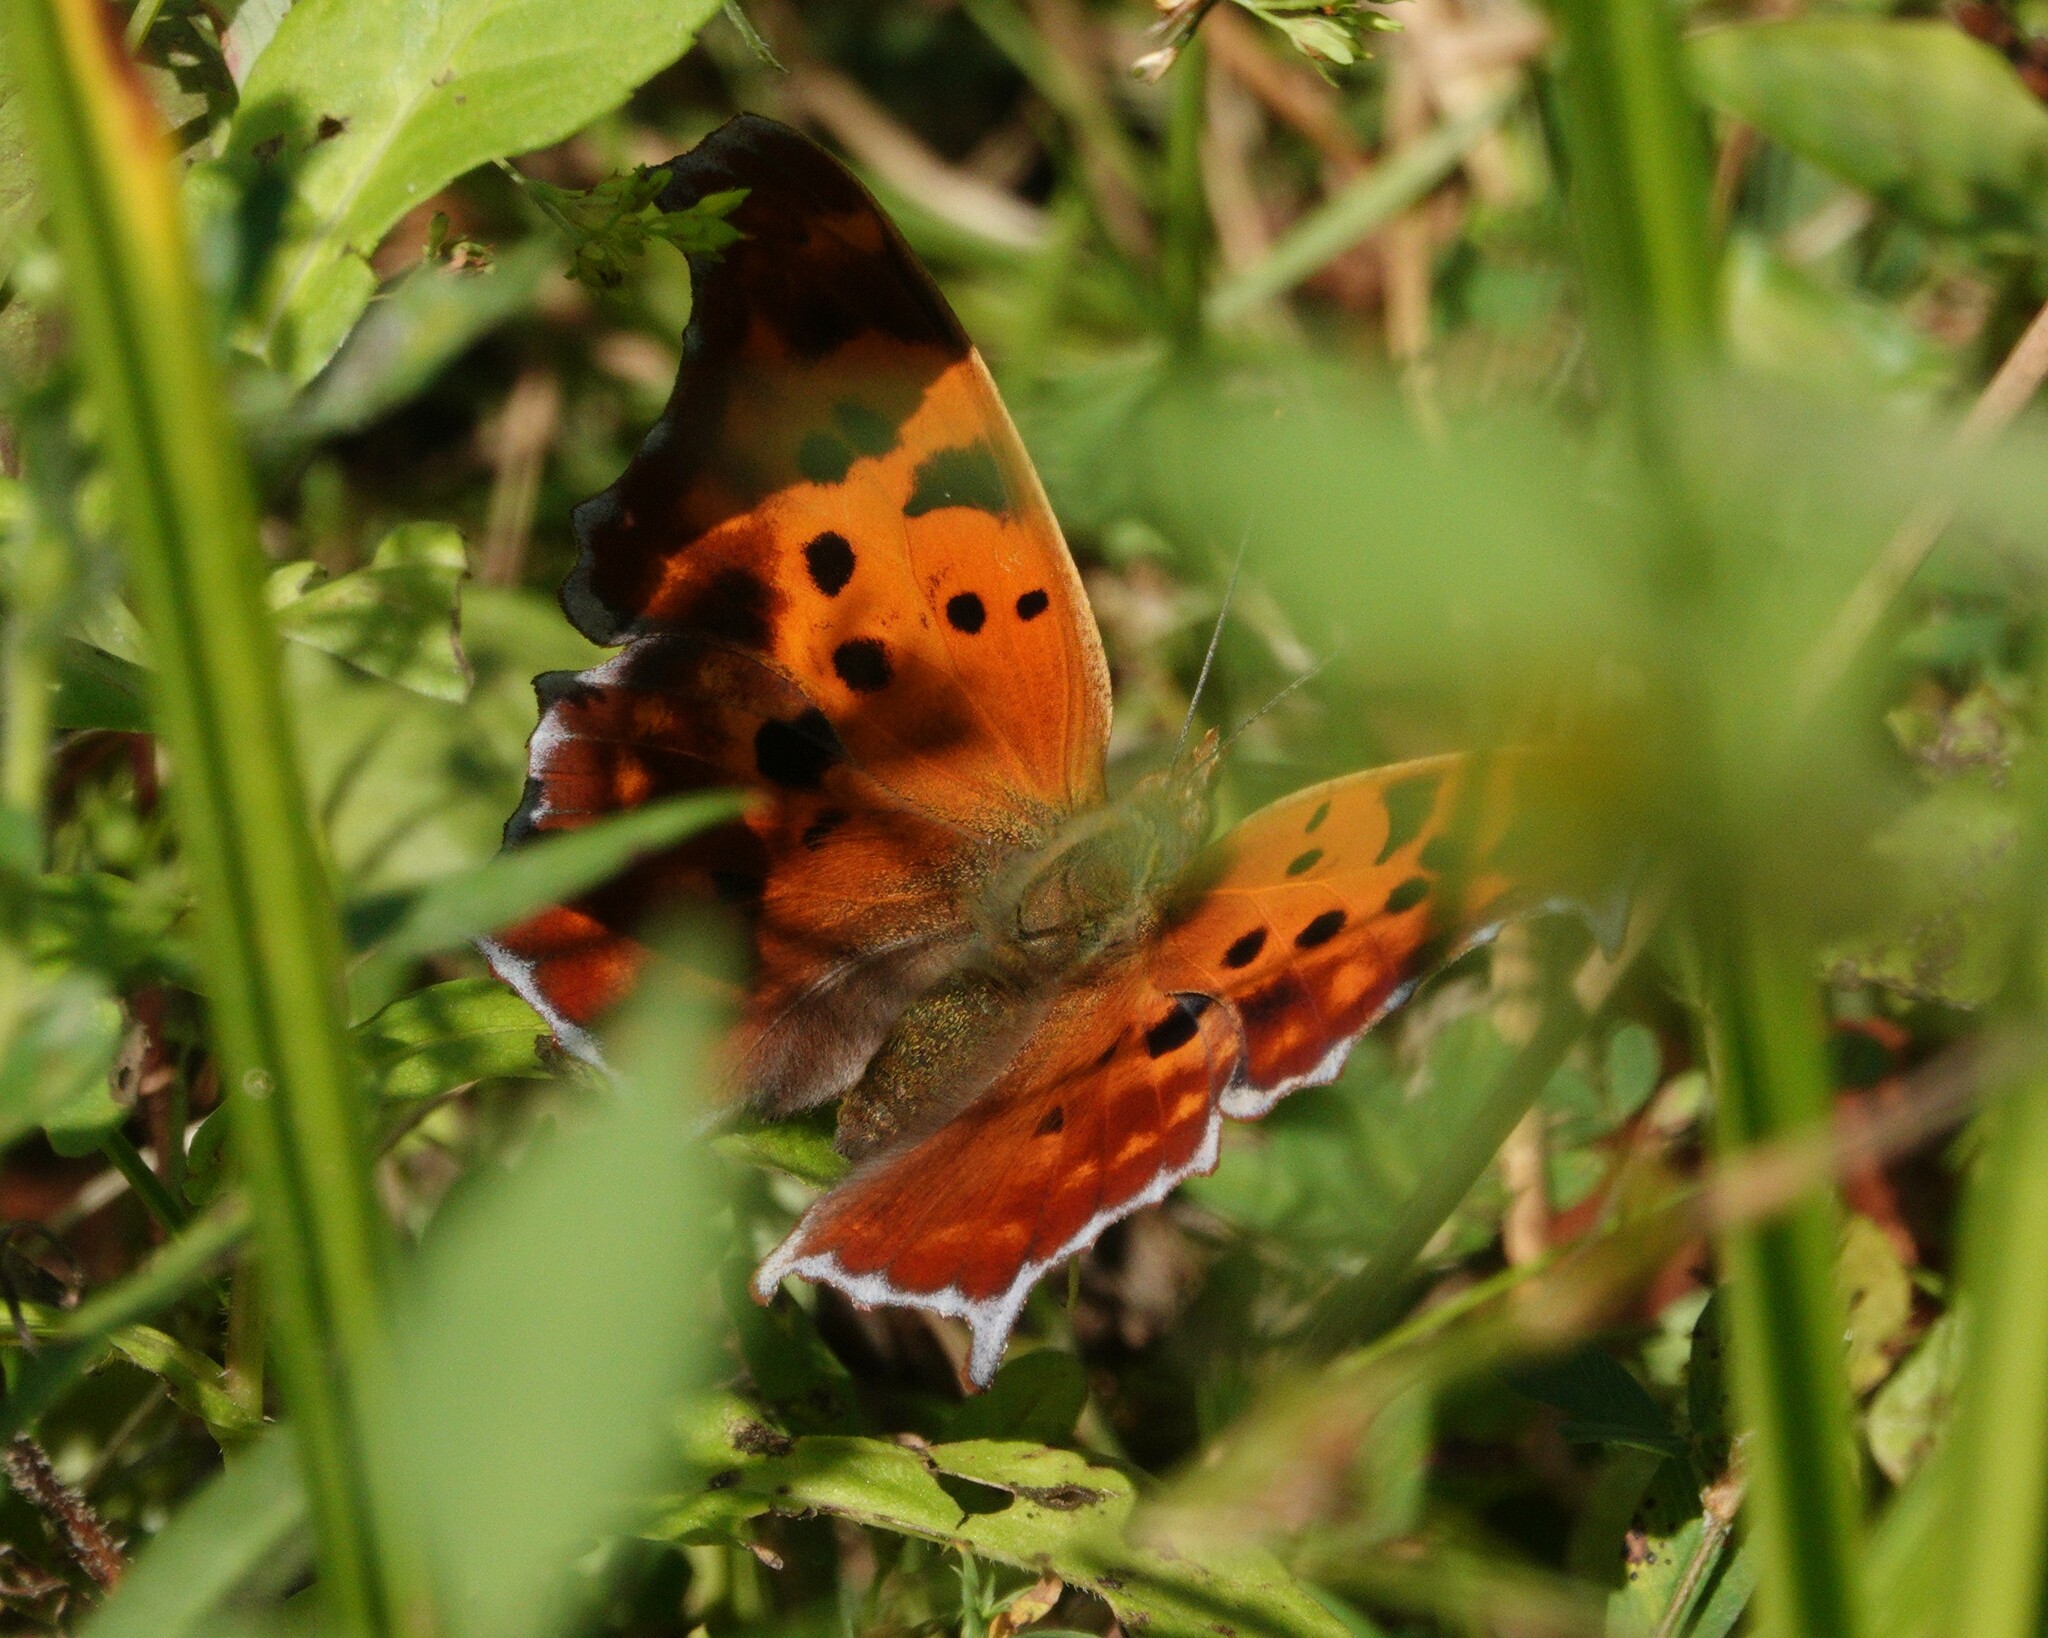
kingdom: Animalia
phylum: Arthropoda
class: Insecta
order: Lepidoptera
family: Nymphalidae
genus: Polygonia
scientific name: Polygonia interrogationis
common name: Question mark
